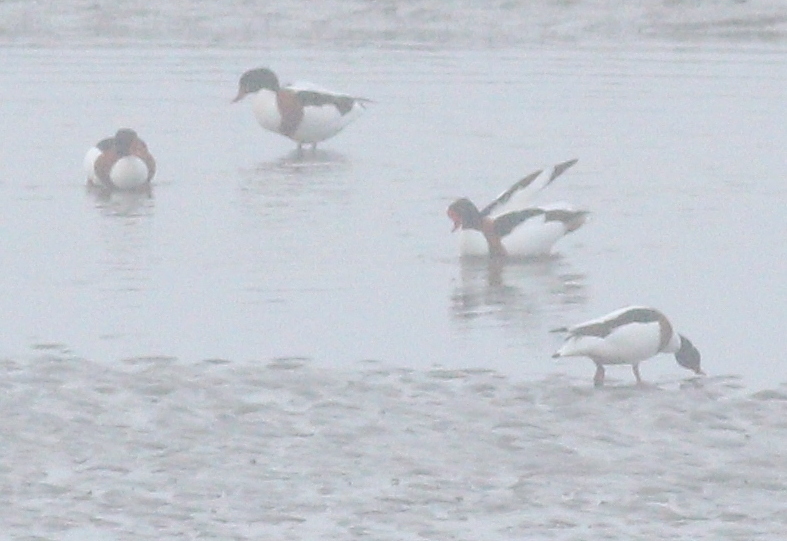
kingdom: Animalia
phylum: Chordata
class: Aves
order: Anseriformes
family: Anatidae
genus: Tadorna
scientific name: Tadorna tadorna
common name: Common shelduck
